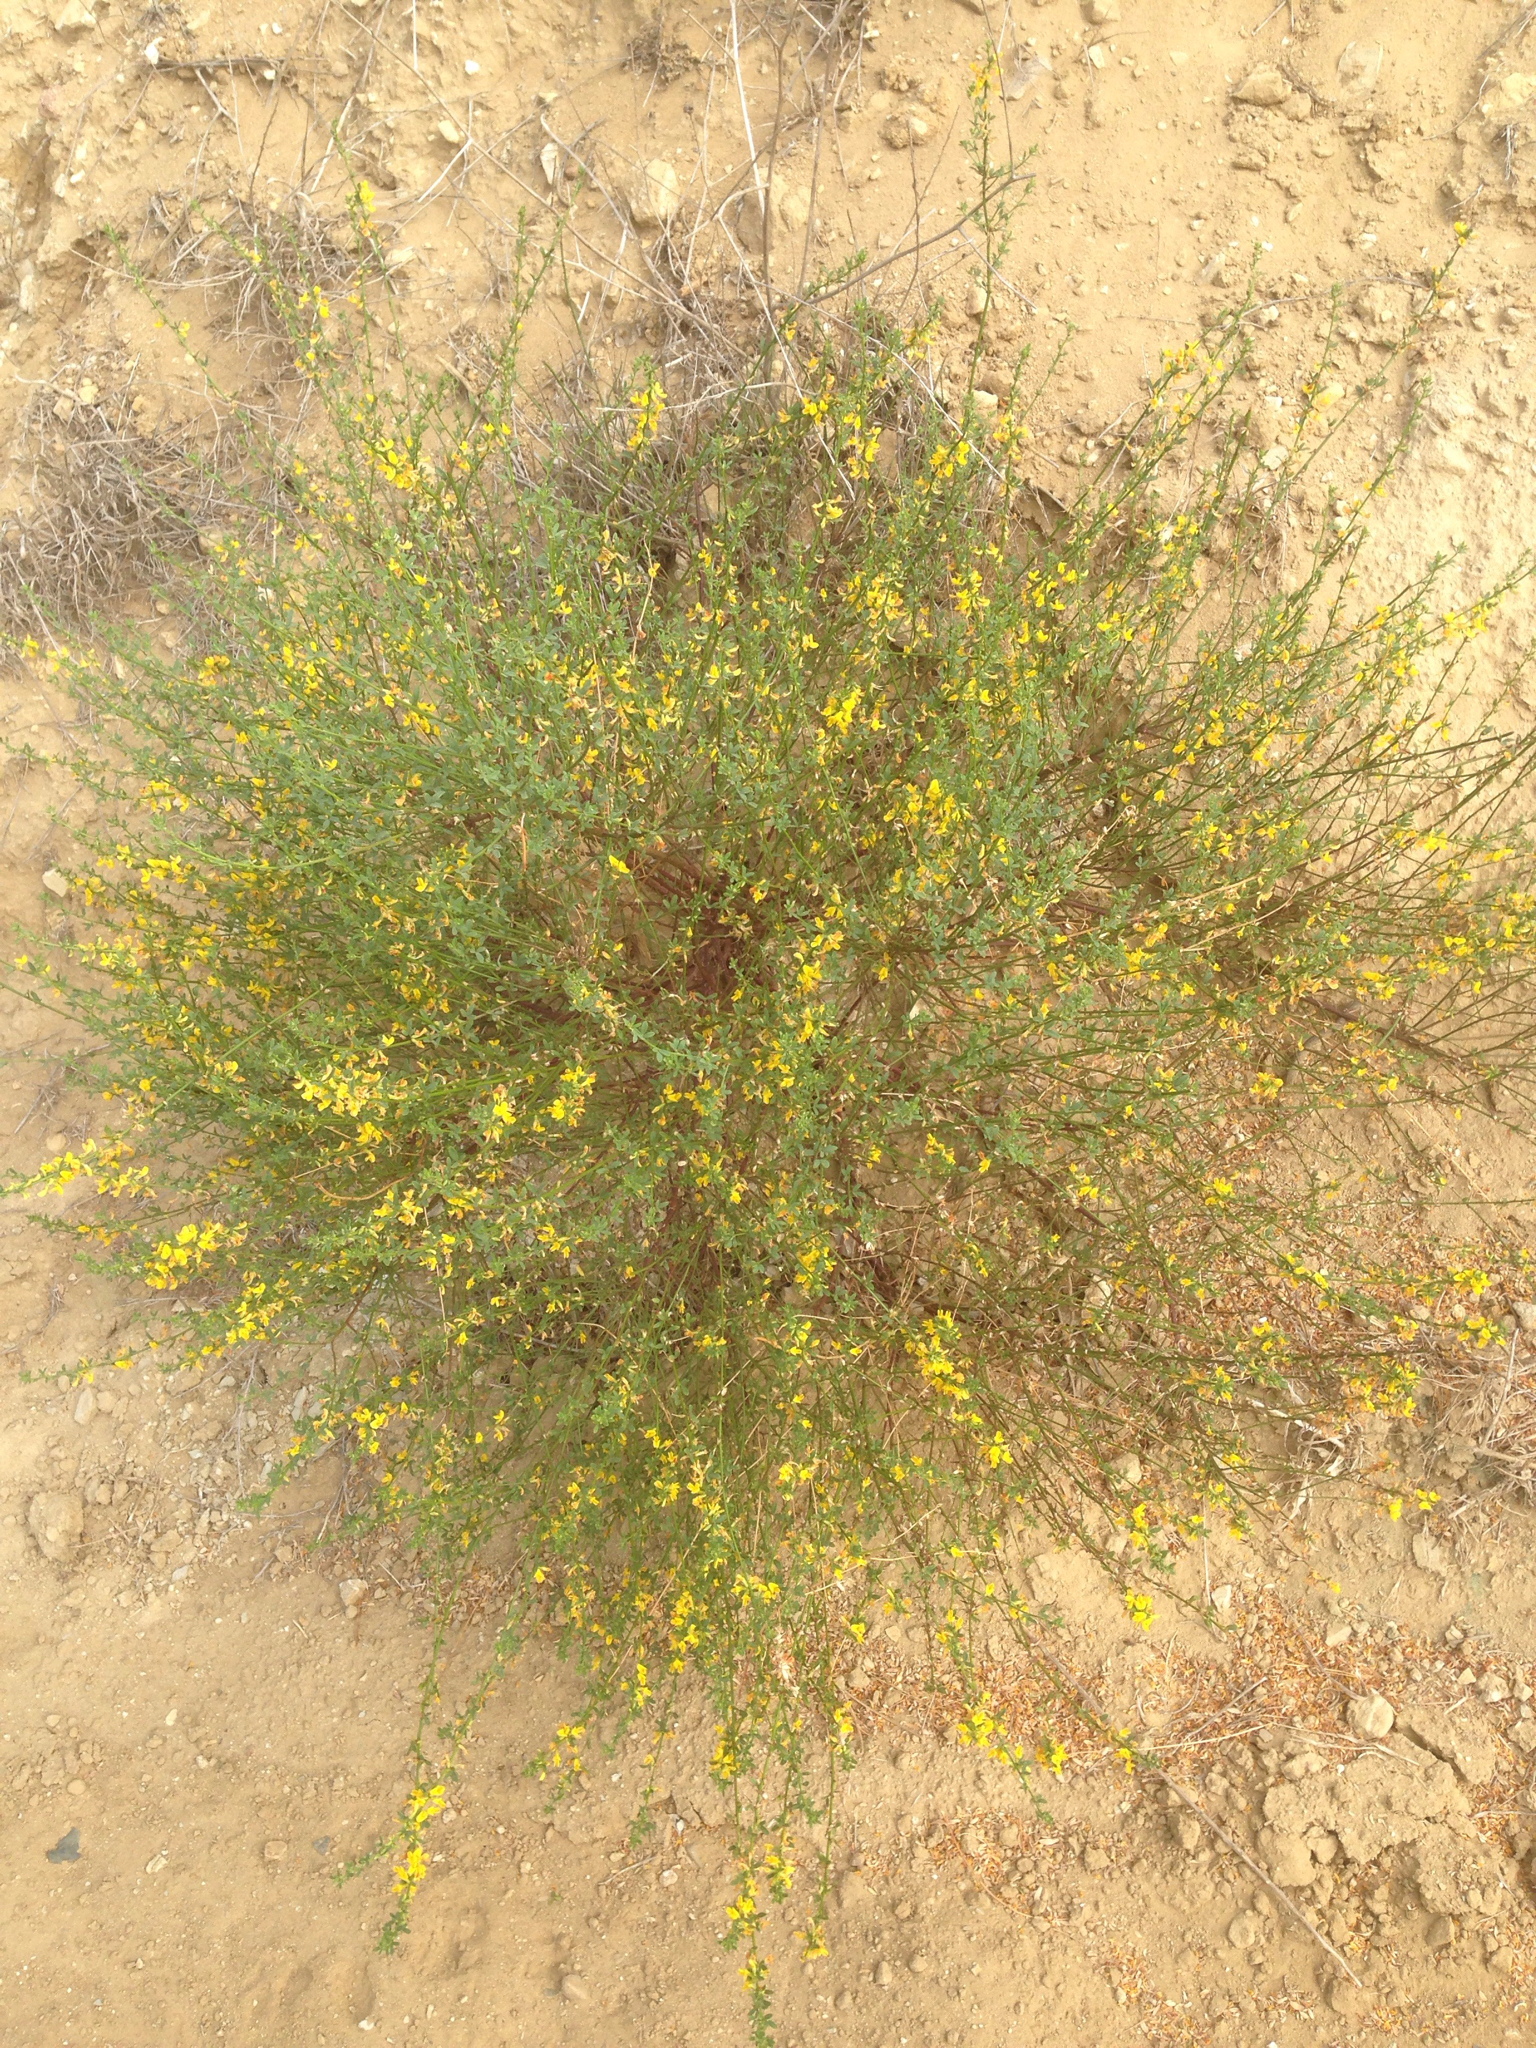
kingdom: Plantae
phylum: Tracheophyta
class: Magnoliopsida
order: Fabales
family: Fabaceae
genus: Acmispon
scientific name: Acmispon glaber
